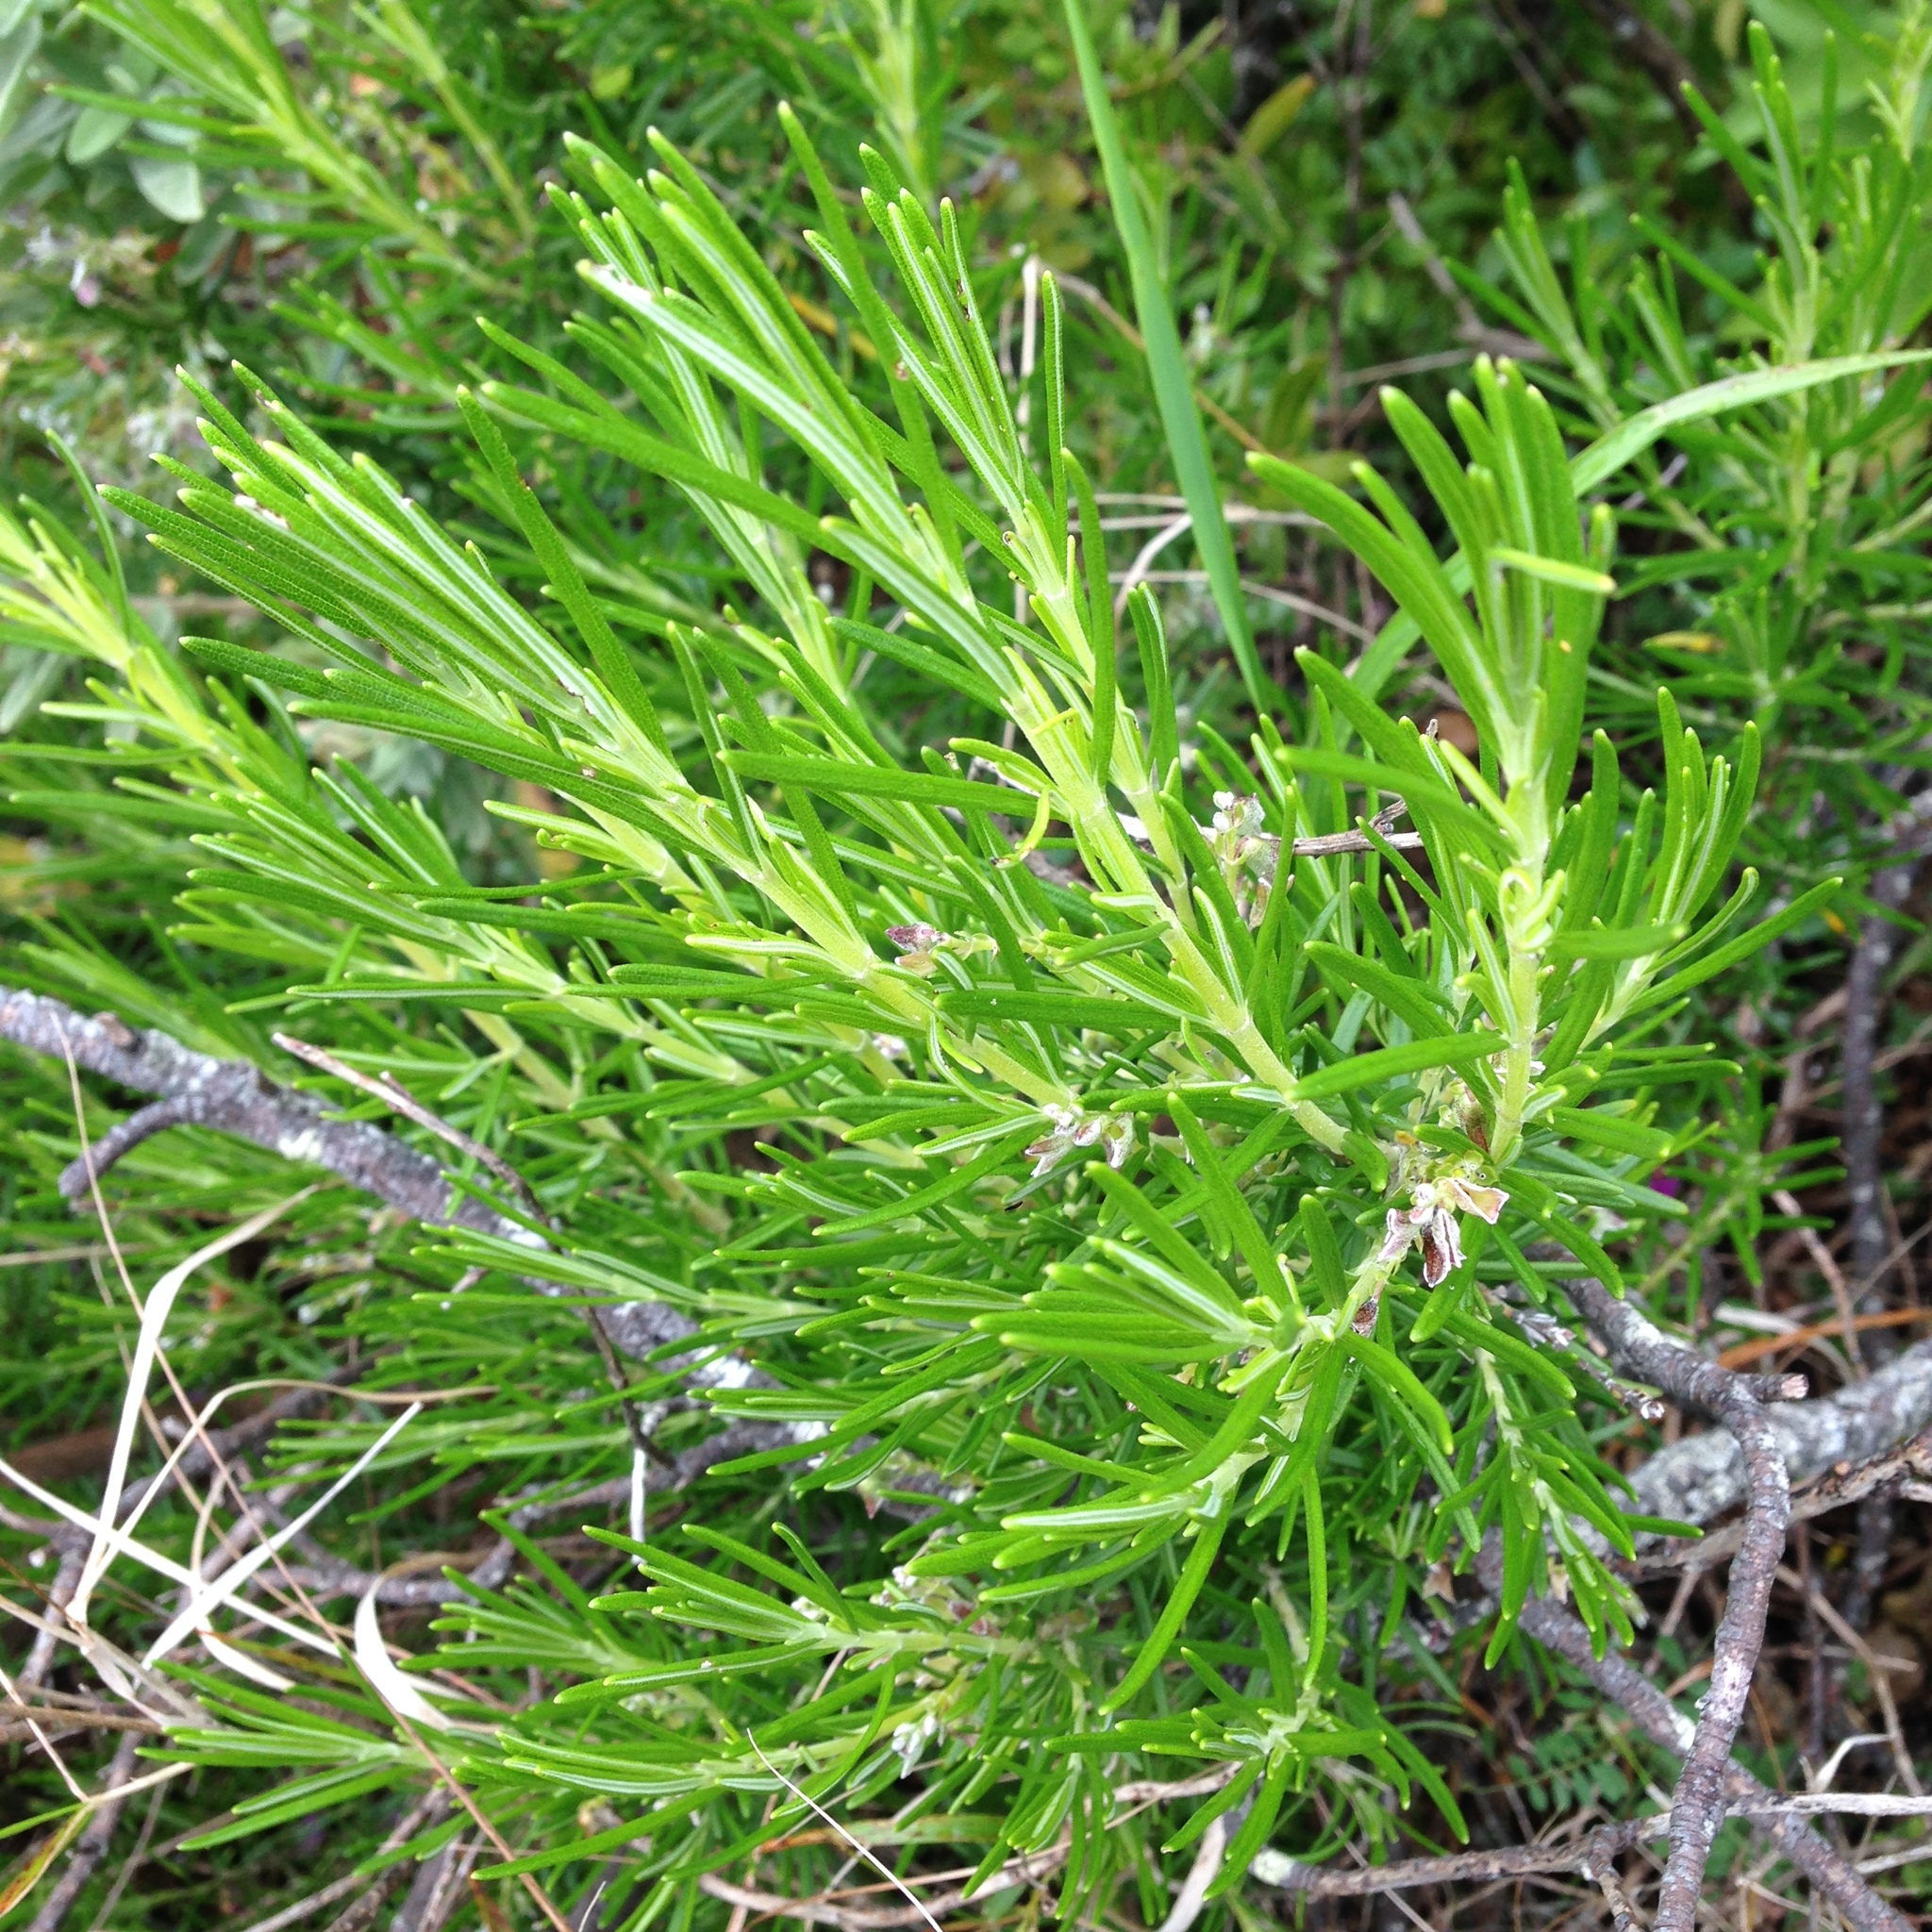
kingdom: Plantae
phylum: Tracheophyta
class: Magnoliopsida
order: Lamiales
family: Lamiaceae
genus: Salvia
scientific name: Salvia rosmarinus
